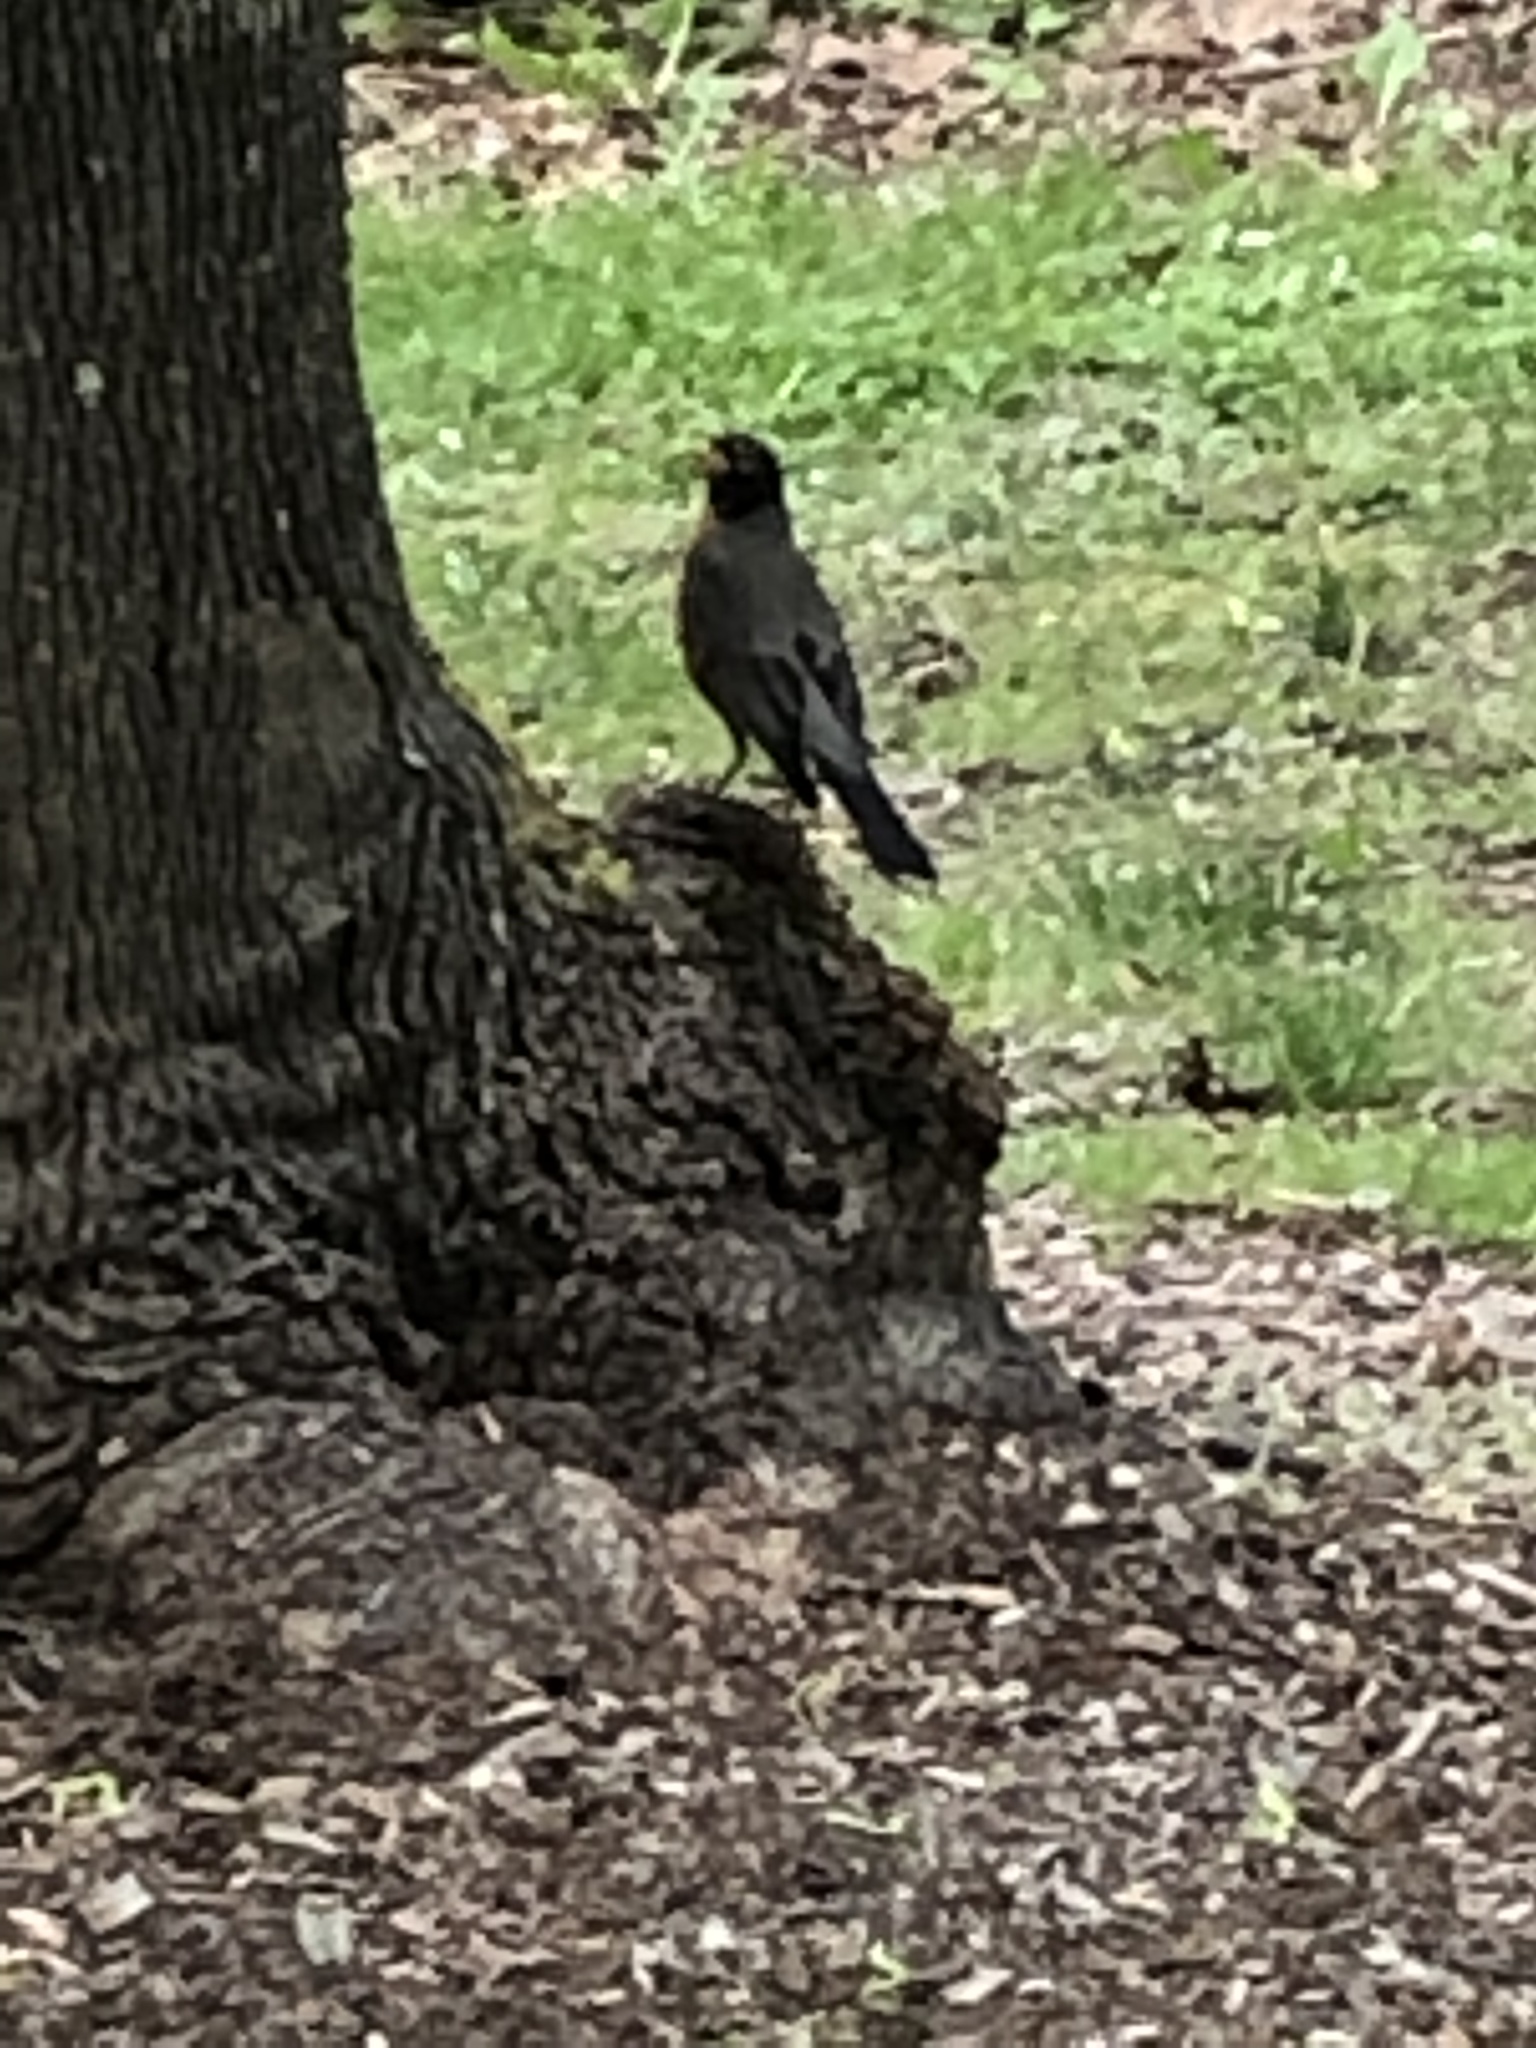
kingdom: Animalia
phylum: Chordata
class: Aves
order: Passeriformes
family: Turdidae
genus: Turdus
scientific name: Turdus migratorius
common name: American robin
